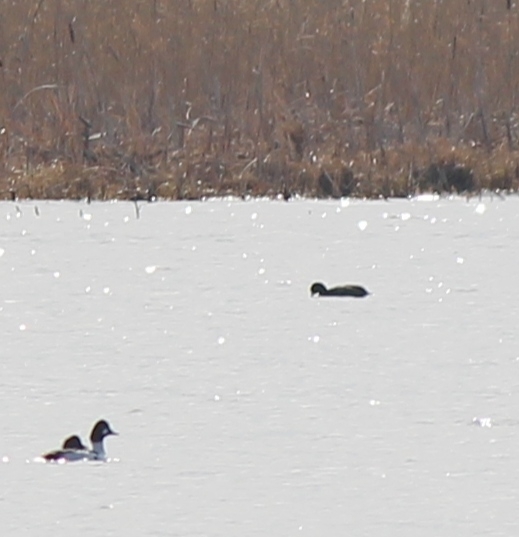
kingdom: Animalia
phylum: Chordata
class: Aves
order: Gruiformes
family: Rallidae
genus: Fulica
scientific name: Fulica atra
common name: Eurasian coot
